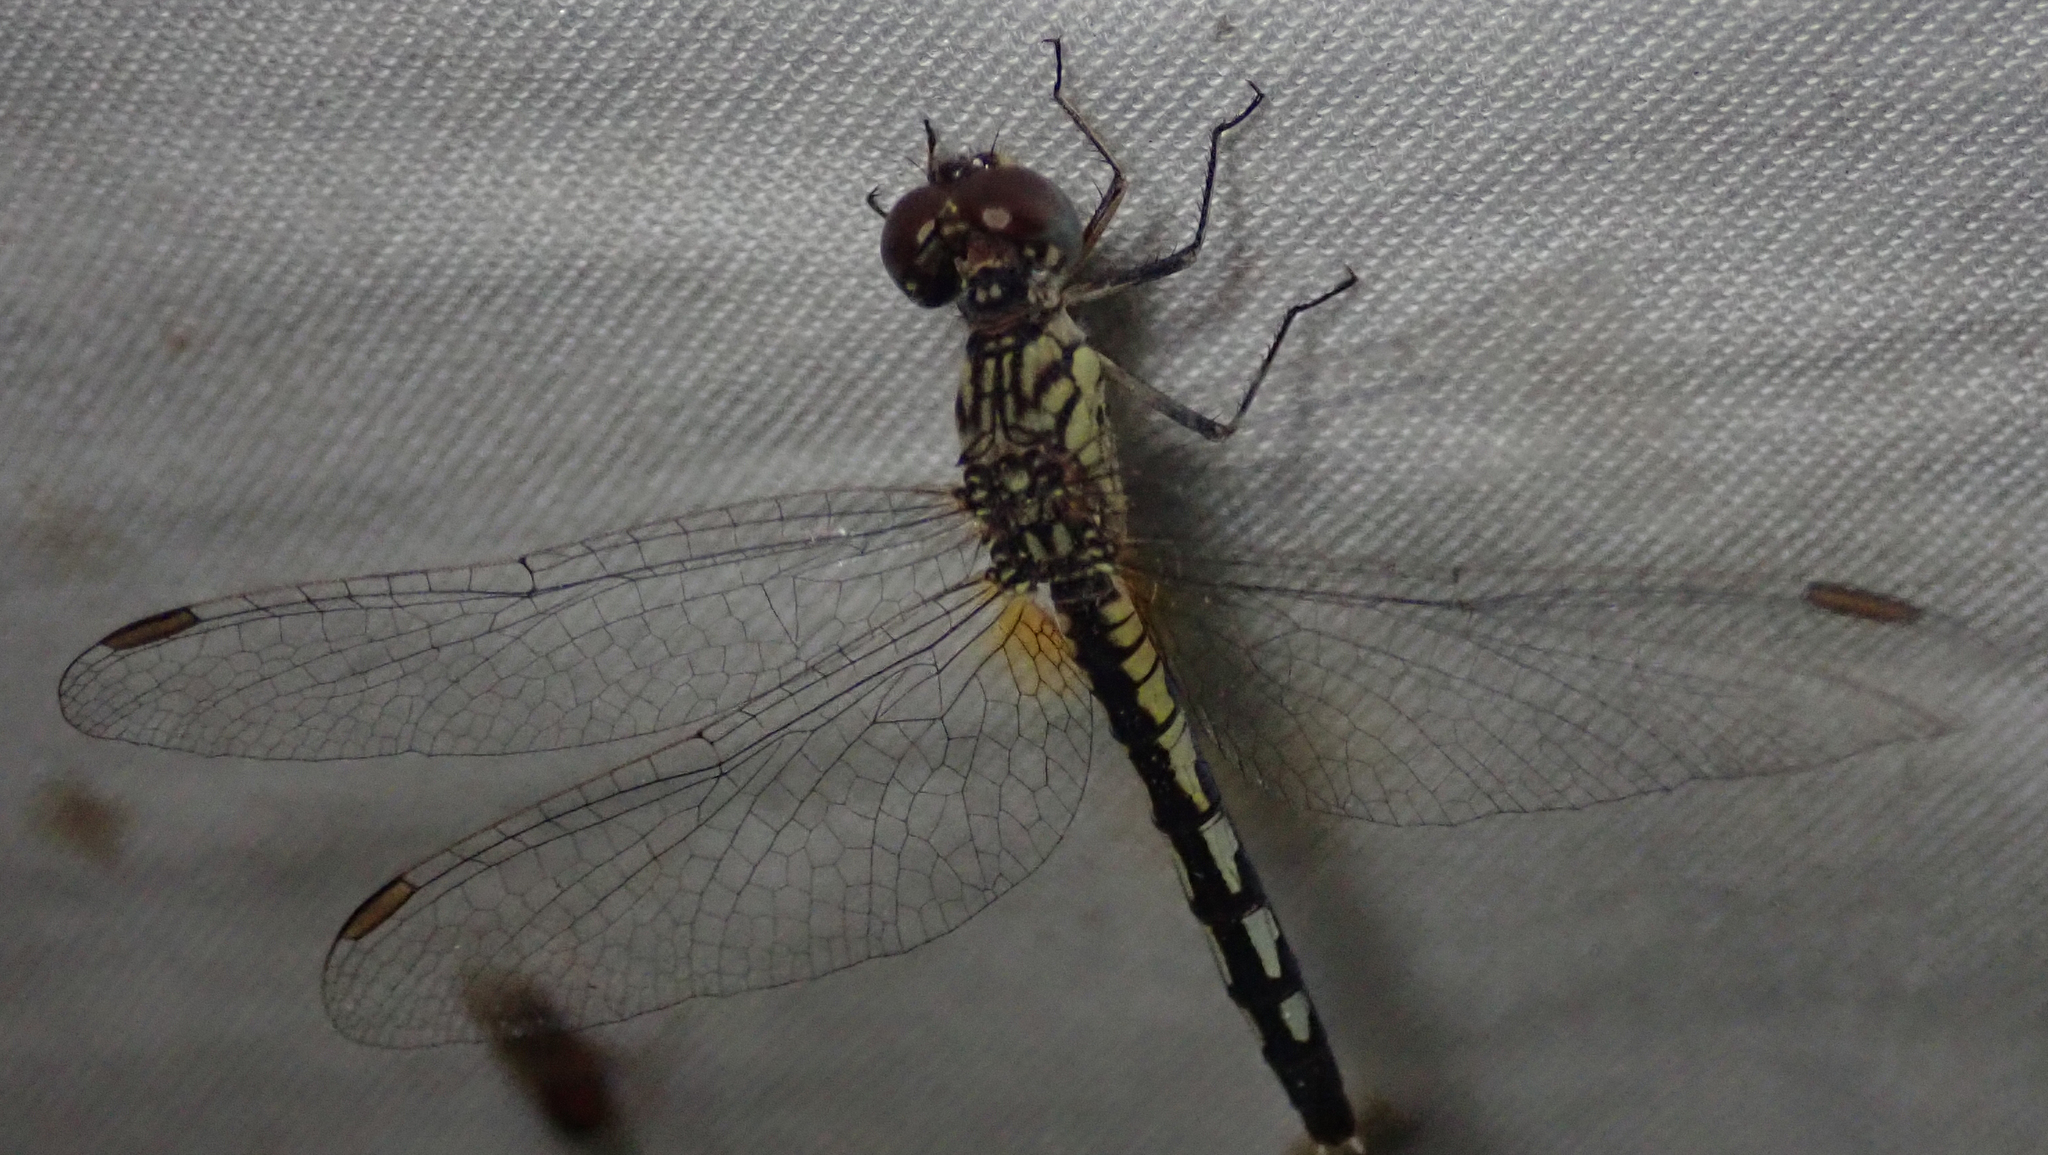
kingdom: Animalia
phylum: Arthropoda
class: Insecta
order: Odonata
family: Libellulidae
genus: Diplacodes
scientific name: Diplacodes lefebvrii
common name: Black percher
